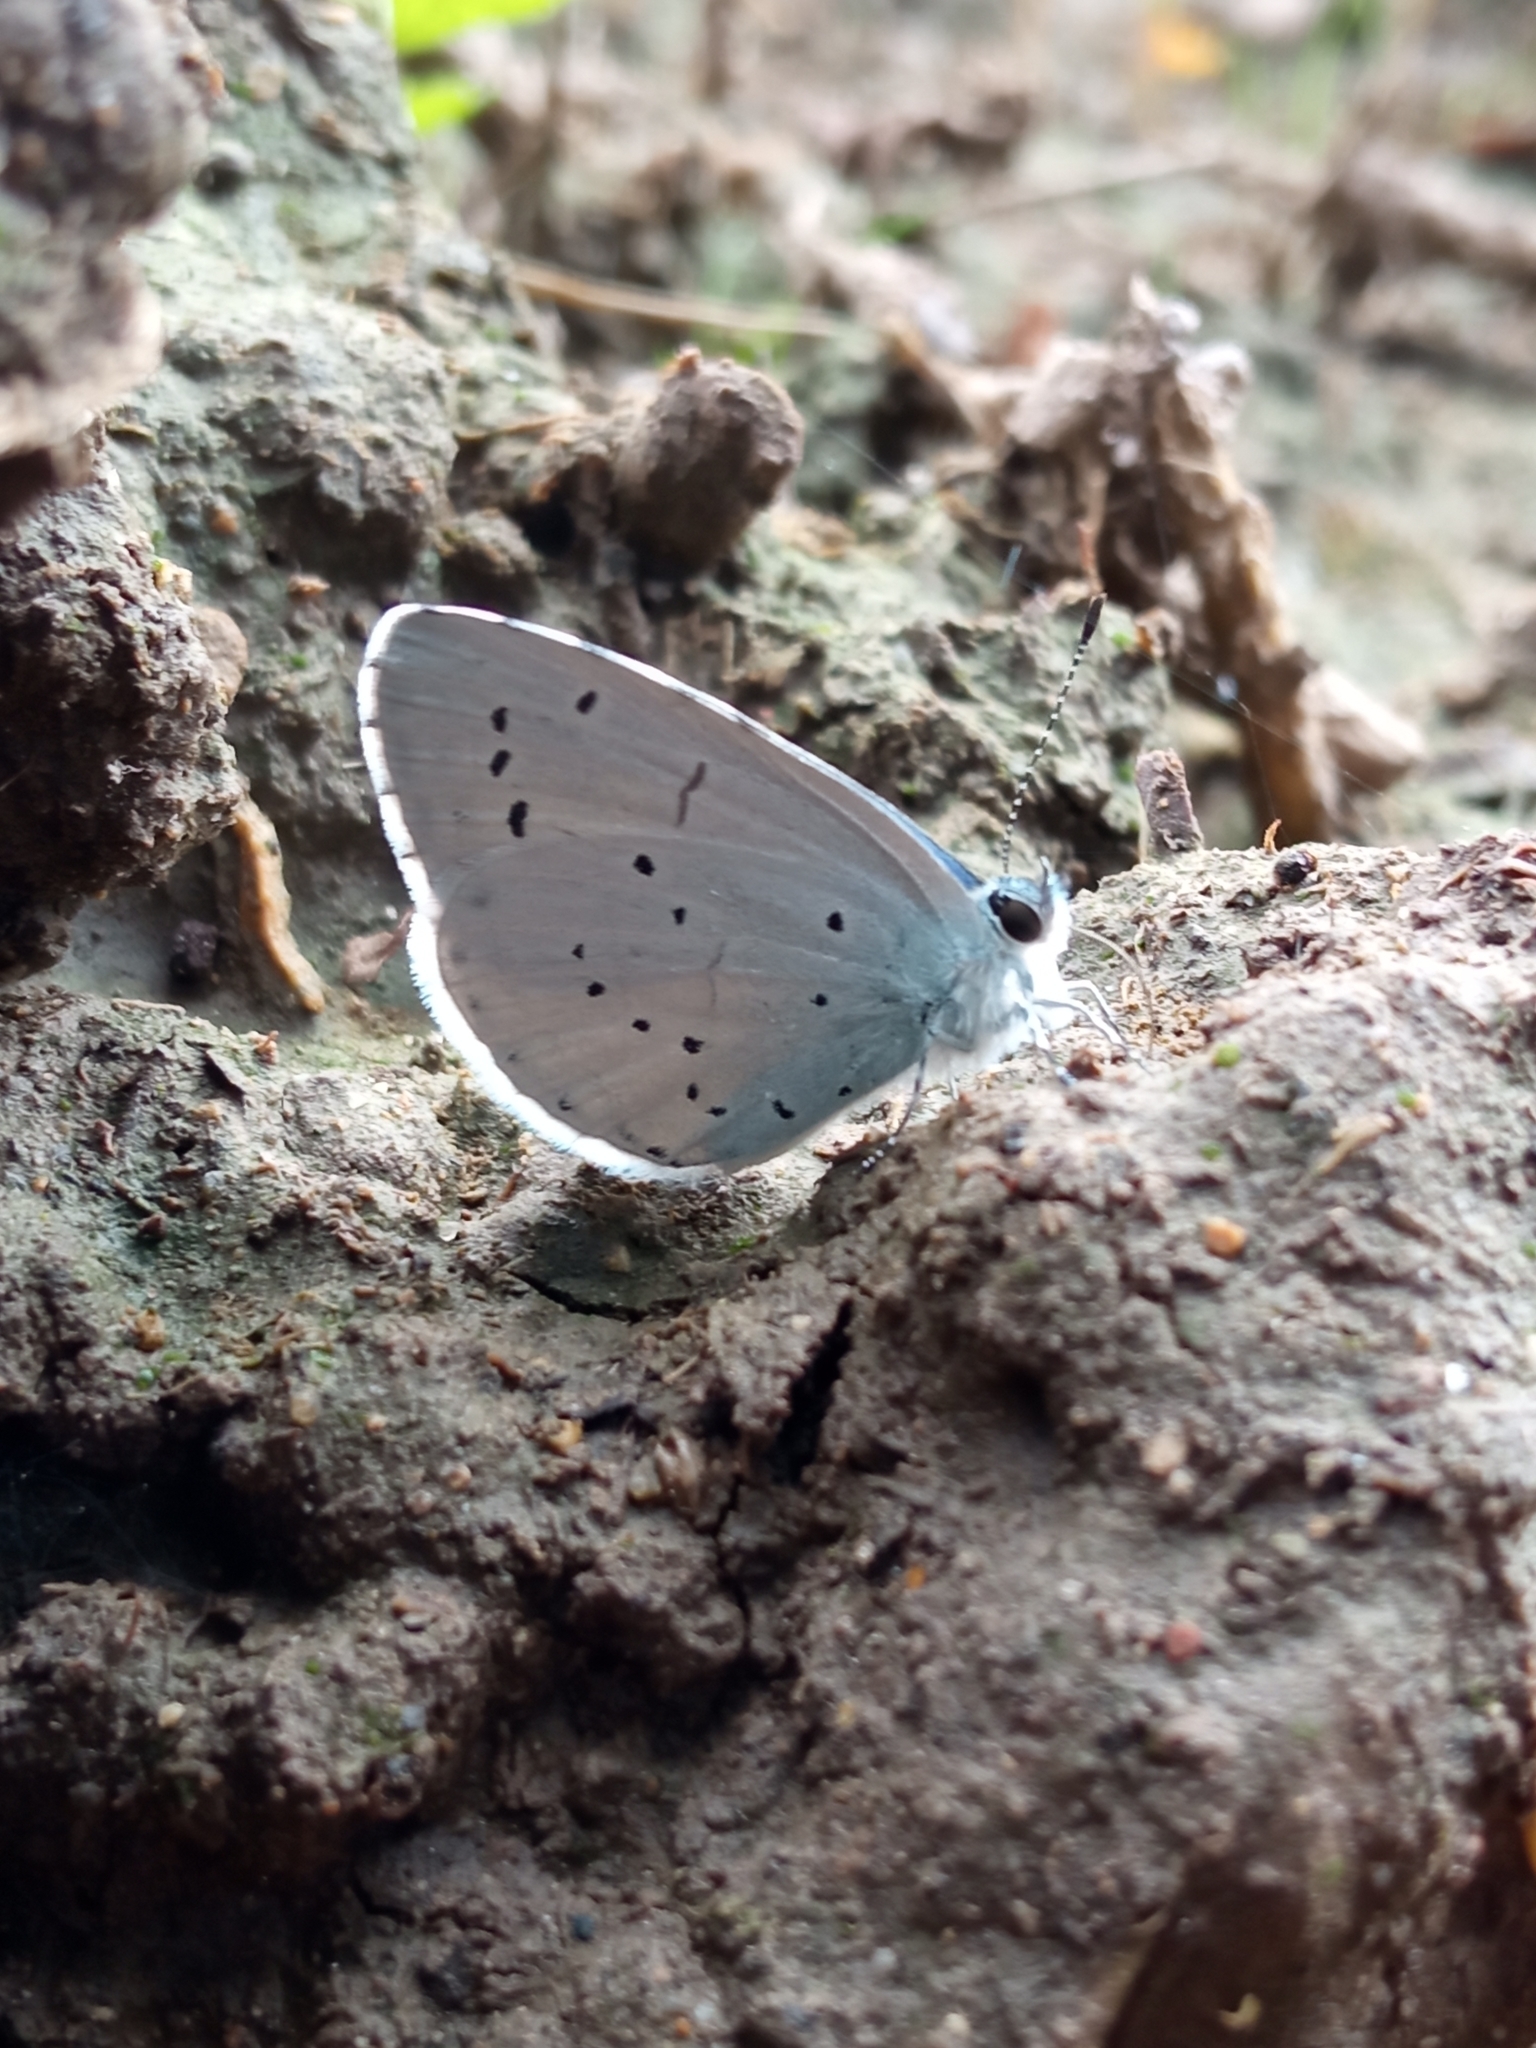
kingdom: Animalia
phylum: Arthropoda
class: Insecta
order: Lepidoptera
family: Lycaenidae
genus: Celastrina
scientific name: Celastrina argiolus
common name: Holly blue
